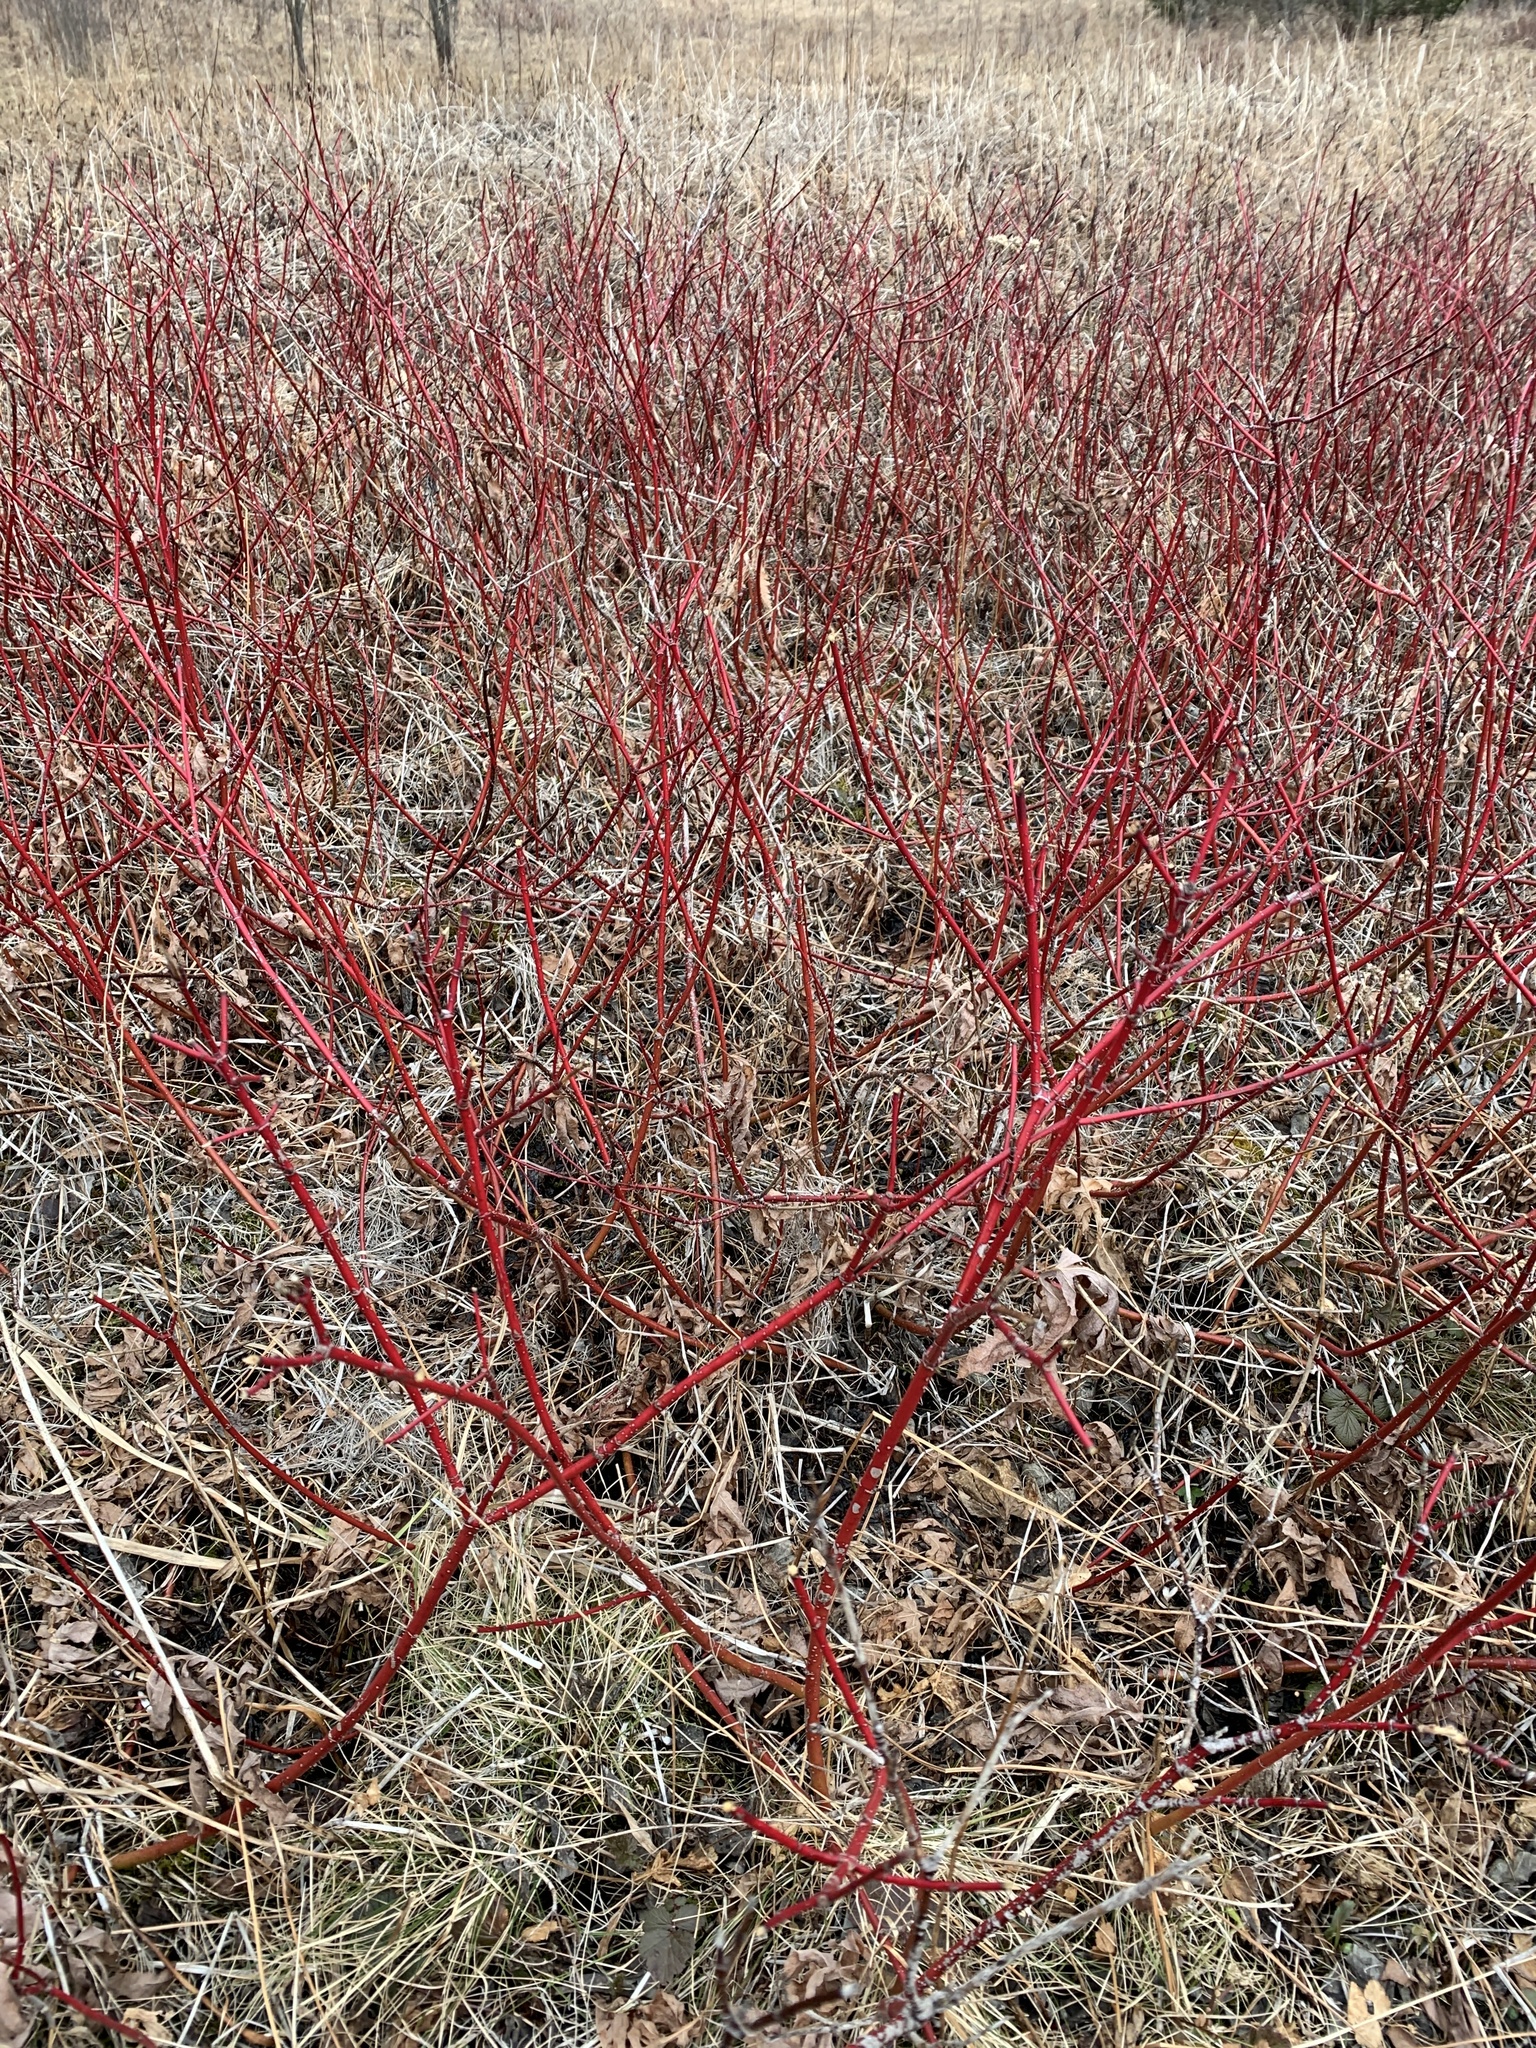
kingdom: Plantae
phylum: Tracheophyta
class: Magnoliopsida
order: Cornales
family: Cornaceae
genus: Cornus
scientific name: Cornus sericea
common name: Red-osier dogwood
